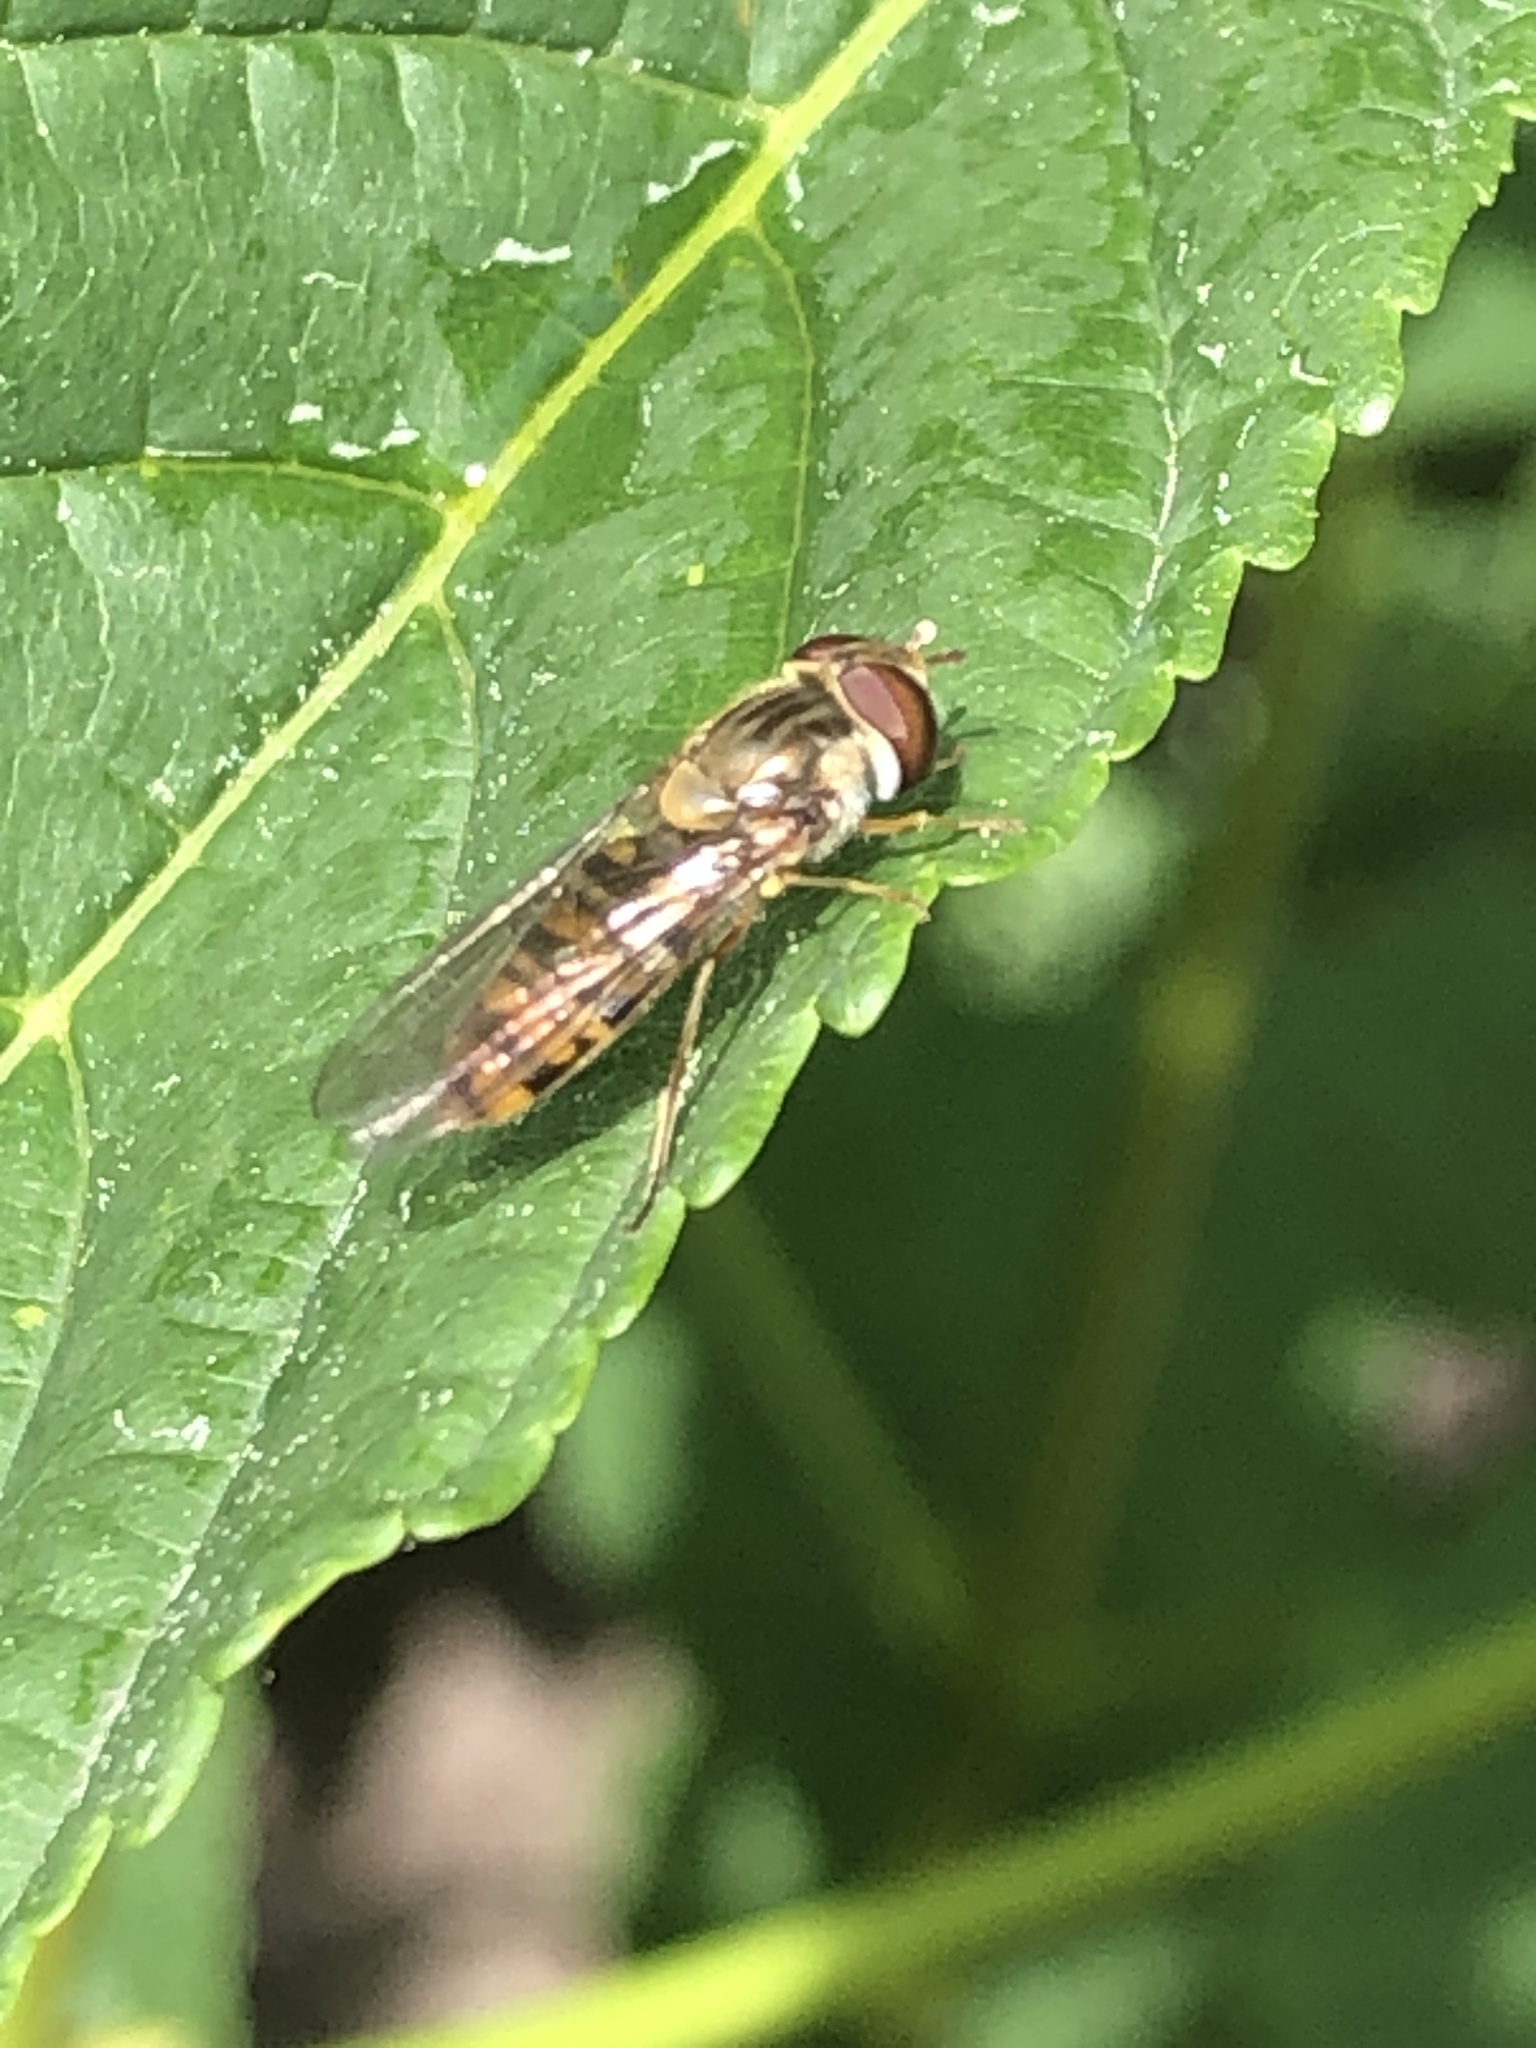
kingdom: Animalia
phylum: Arthropoda
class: Insecta
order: Diptera
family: Syrphidae
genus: Episyrphus
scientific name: Episyrphus balteatus
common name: Marmalade hoverfly
